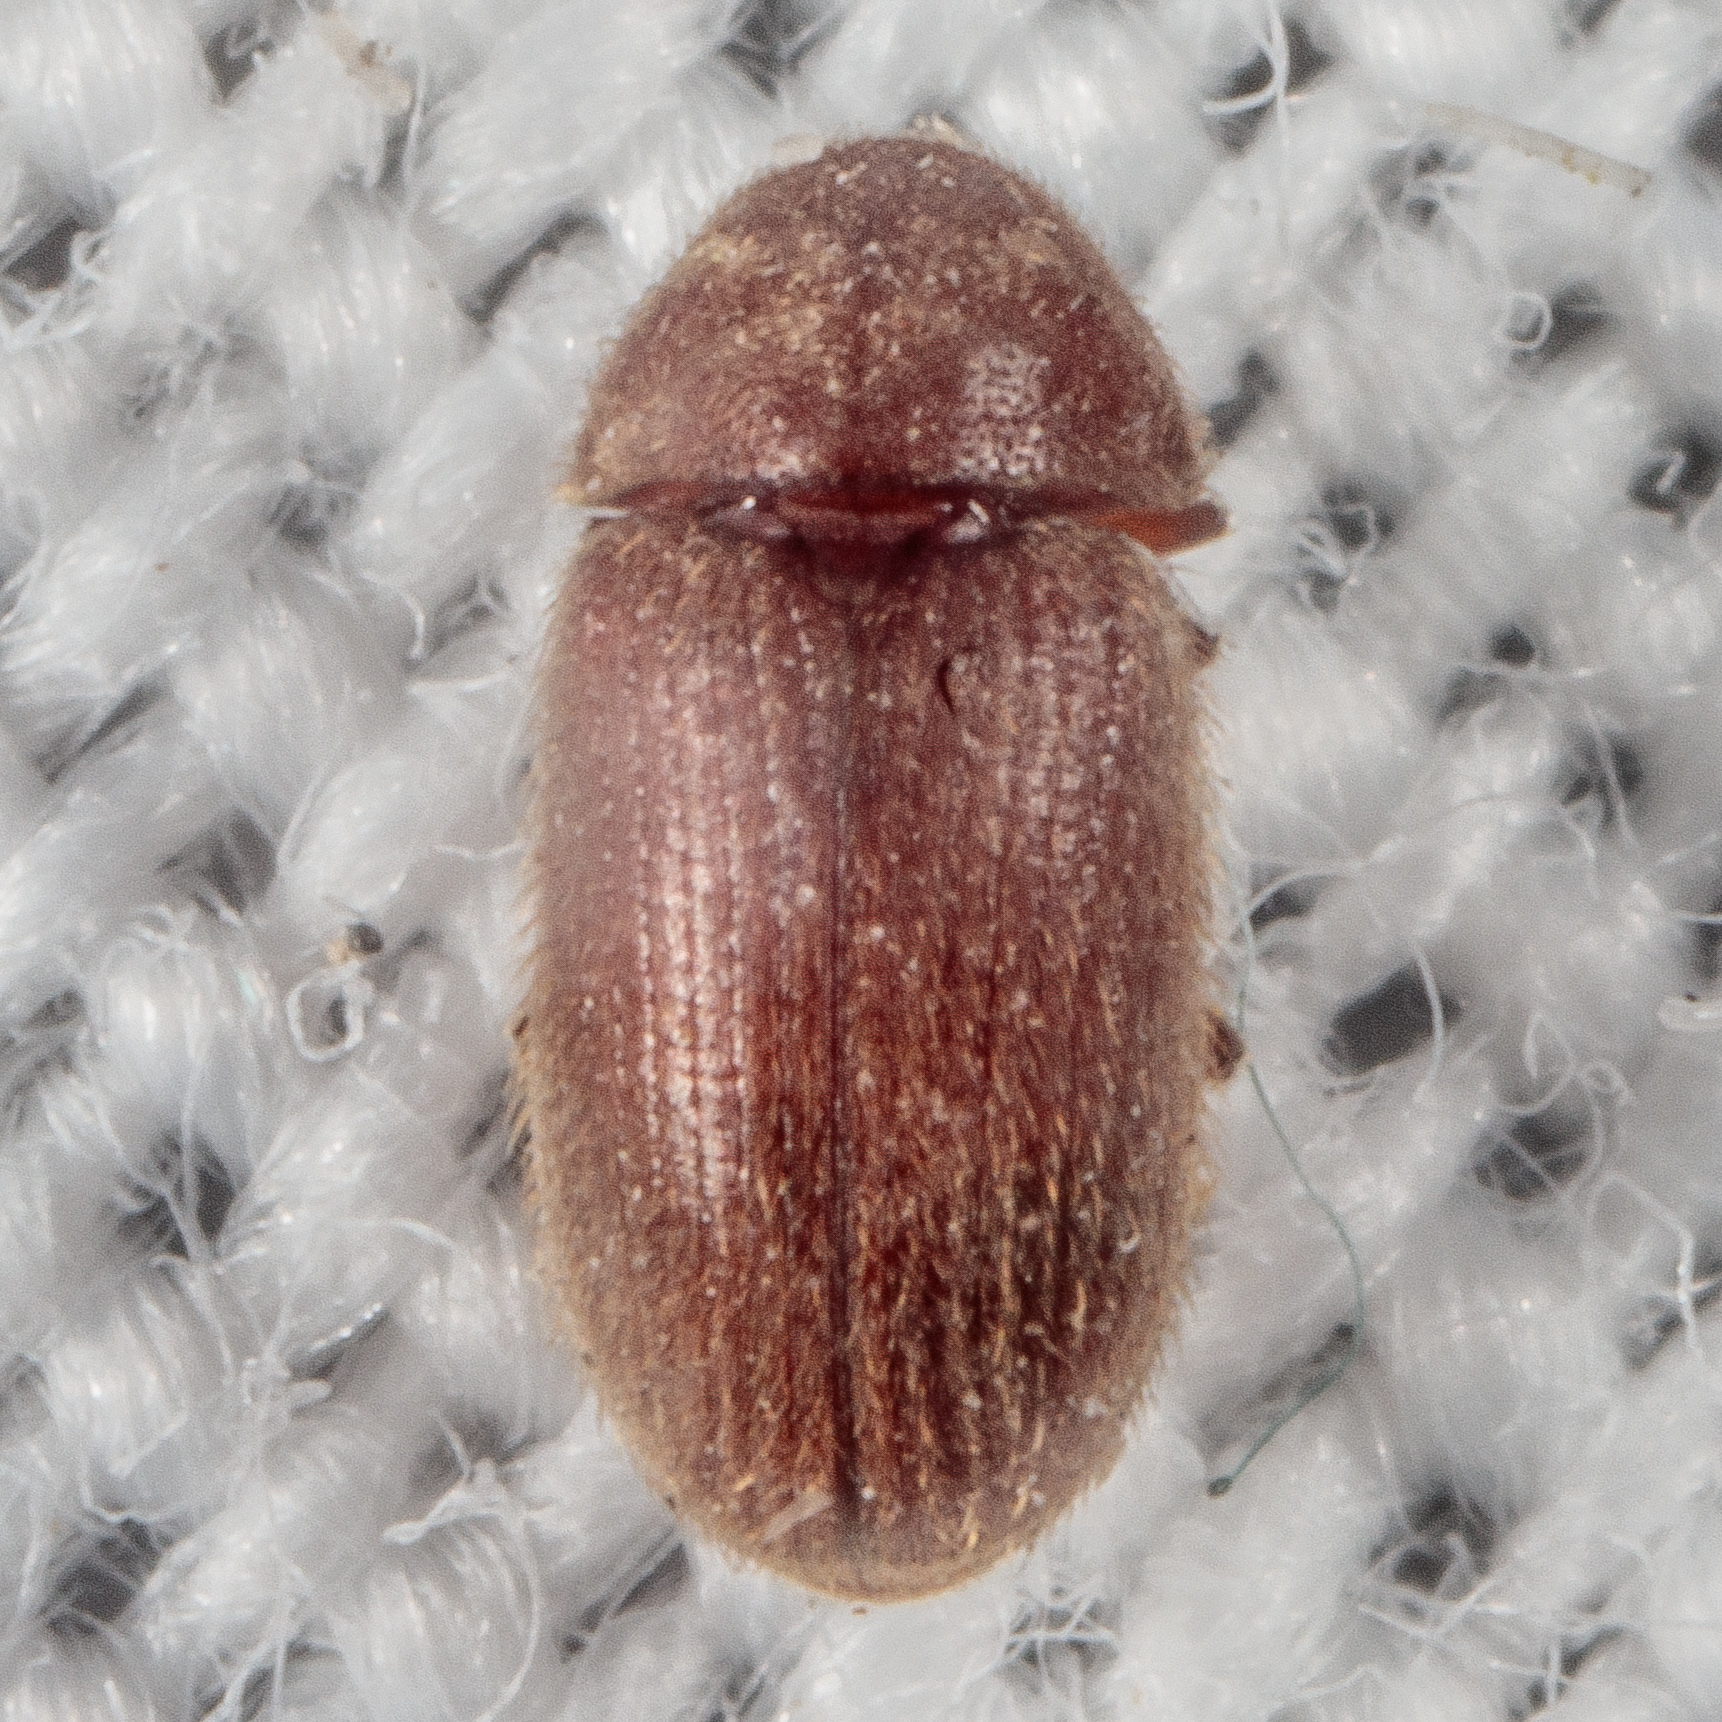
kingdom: Animalia
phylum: Arthropoda
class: Insecta
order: Coleoptera
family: Anobiidae
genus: Stegobium
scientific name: Stegobium paniceum
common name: Drugstore beetle
